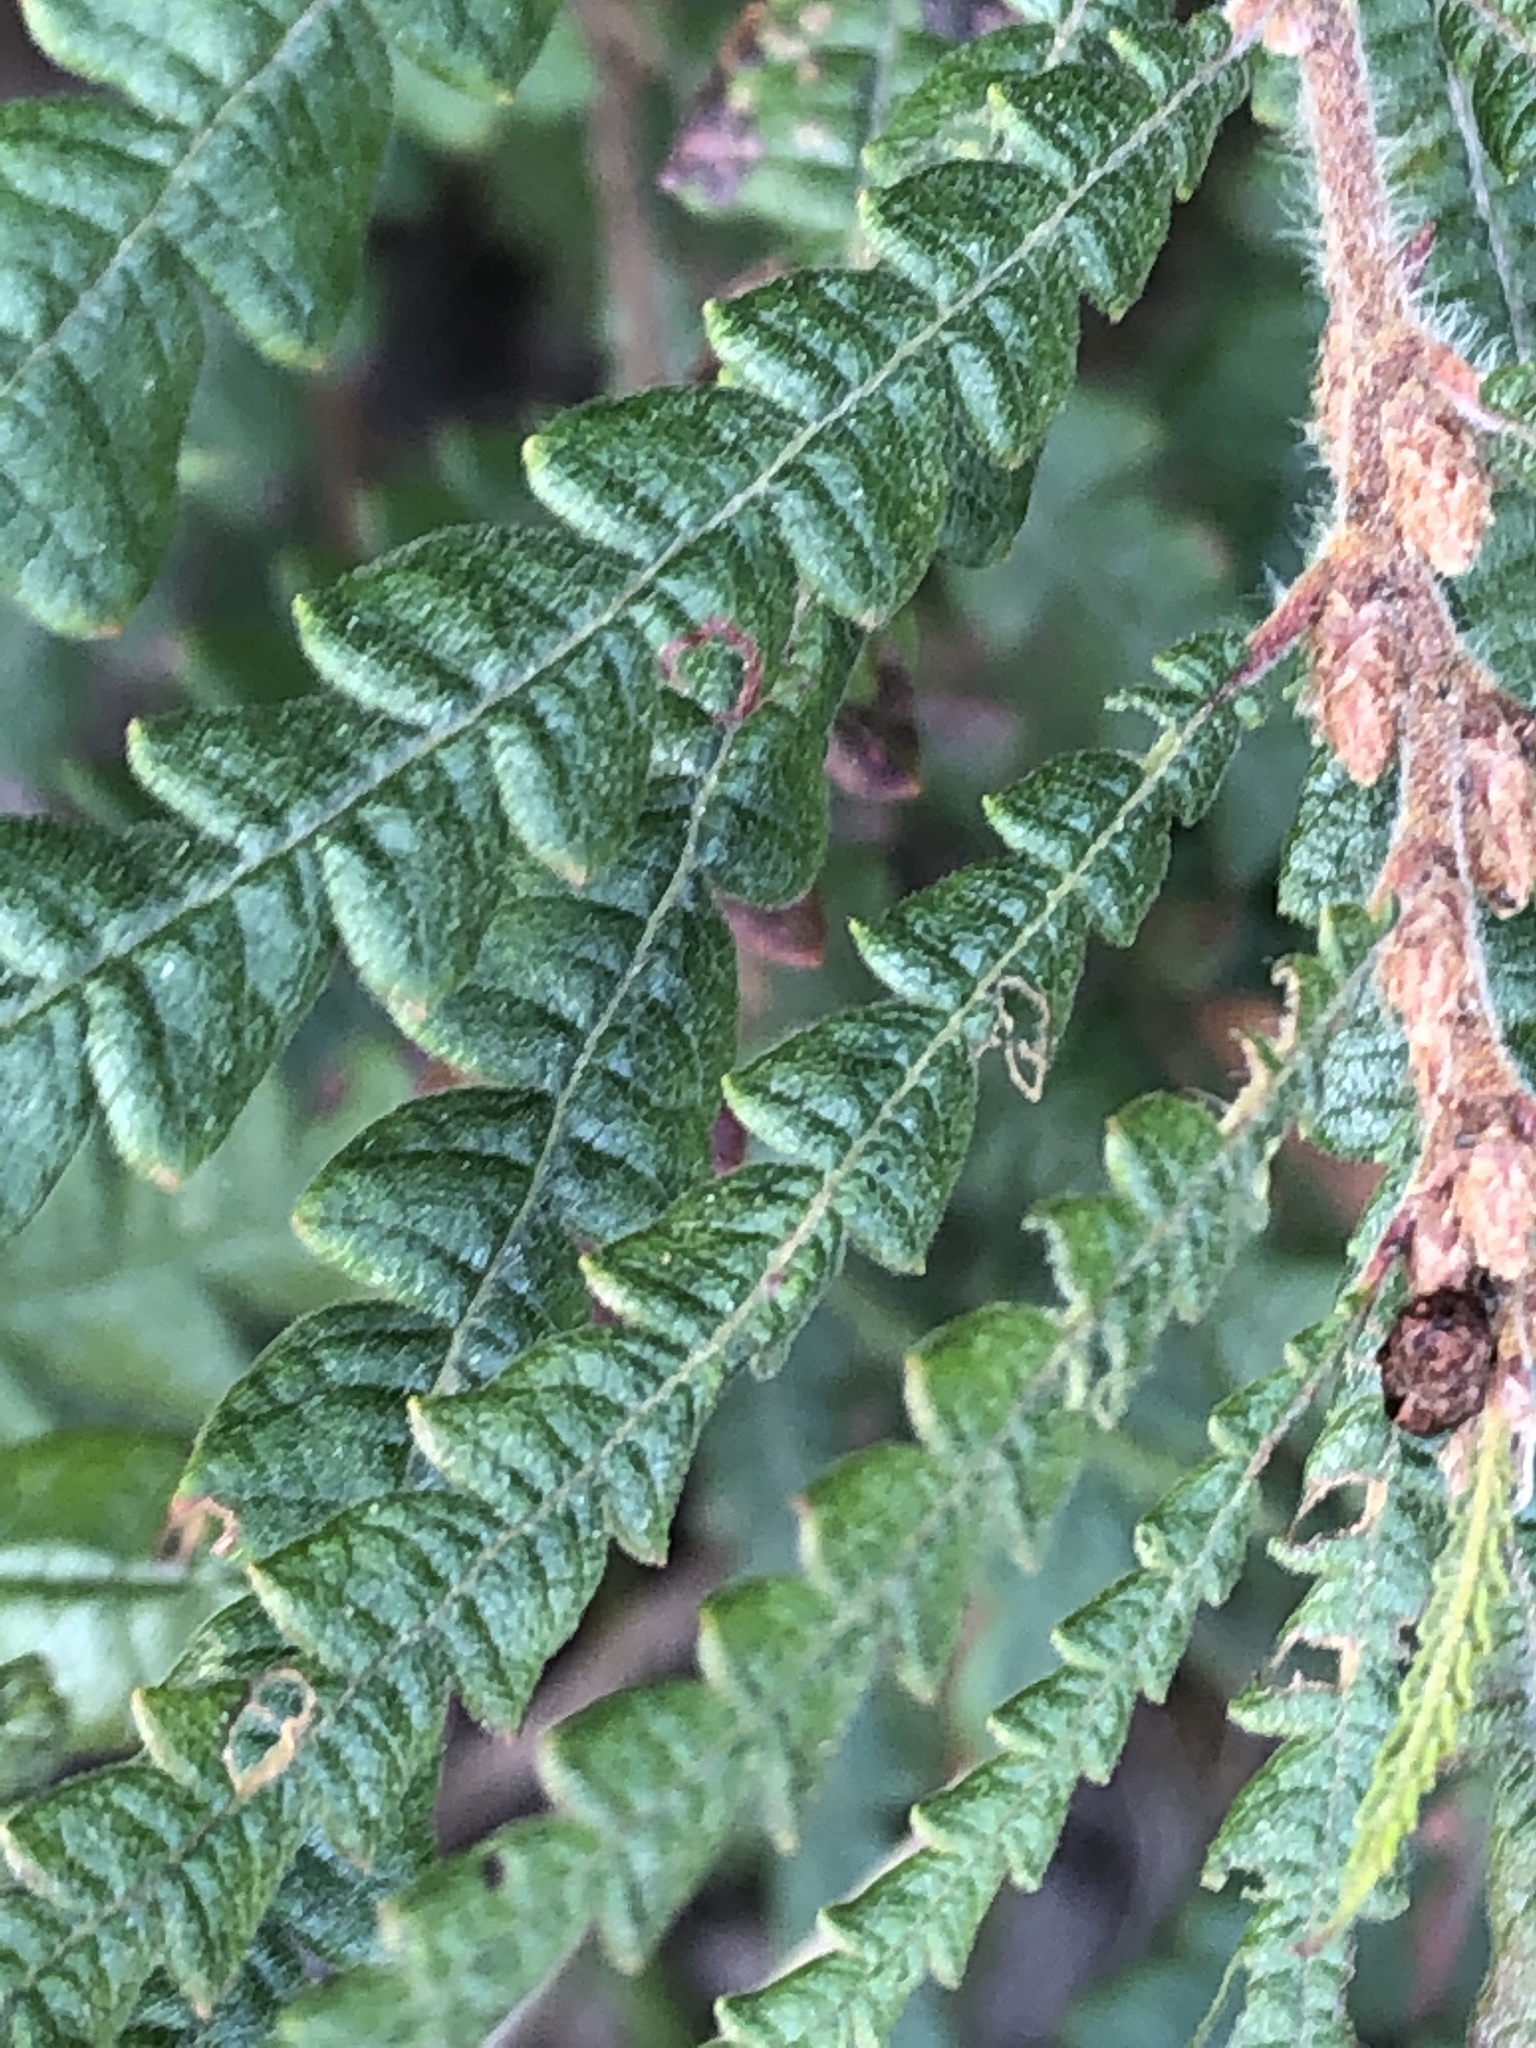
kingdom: Plantae
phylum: Tracheophyta
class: Magnoliopsida
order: Fagales
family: Myricaceae
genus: Comptonia
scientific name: Comptonia peregrina
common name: Sweet-fern
